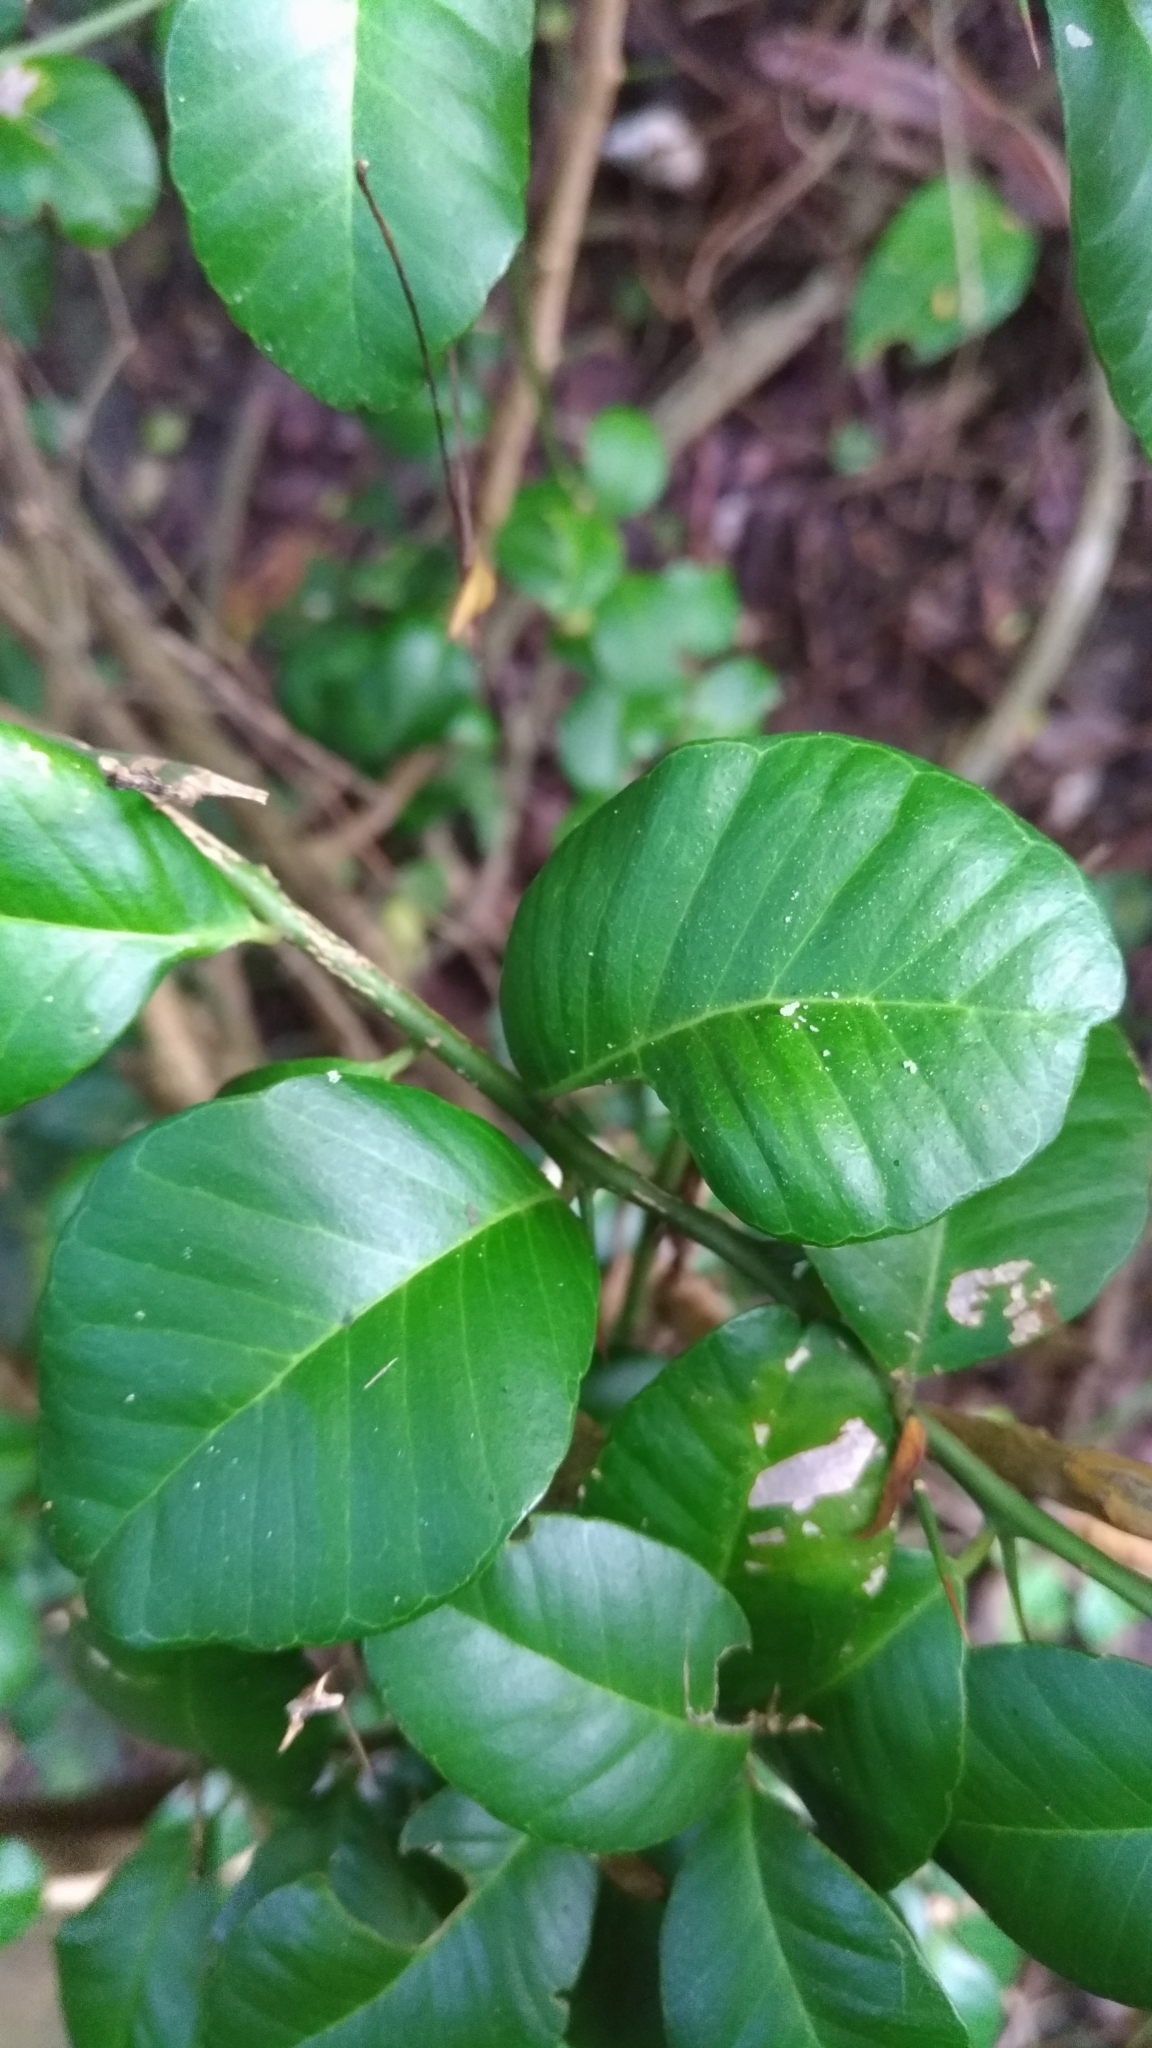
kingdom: Plantae
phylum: Tracheophyta
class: Magnoliopsida
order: Sapindales
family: Rutaceae
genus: Atalantia
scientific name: Atalantia buxifolia
